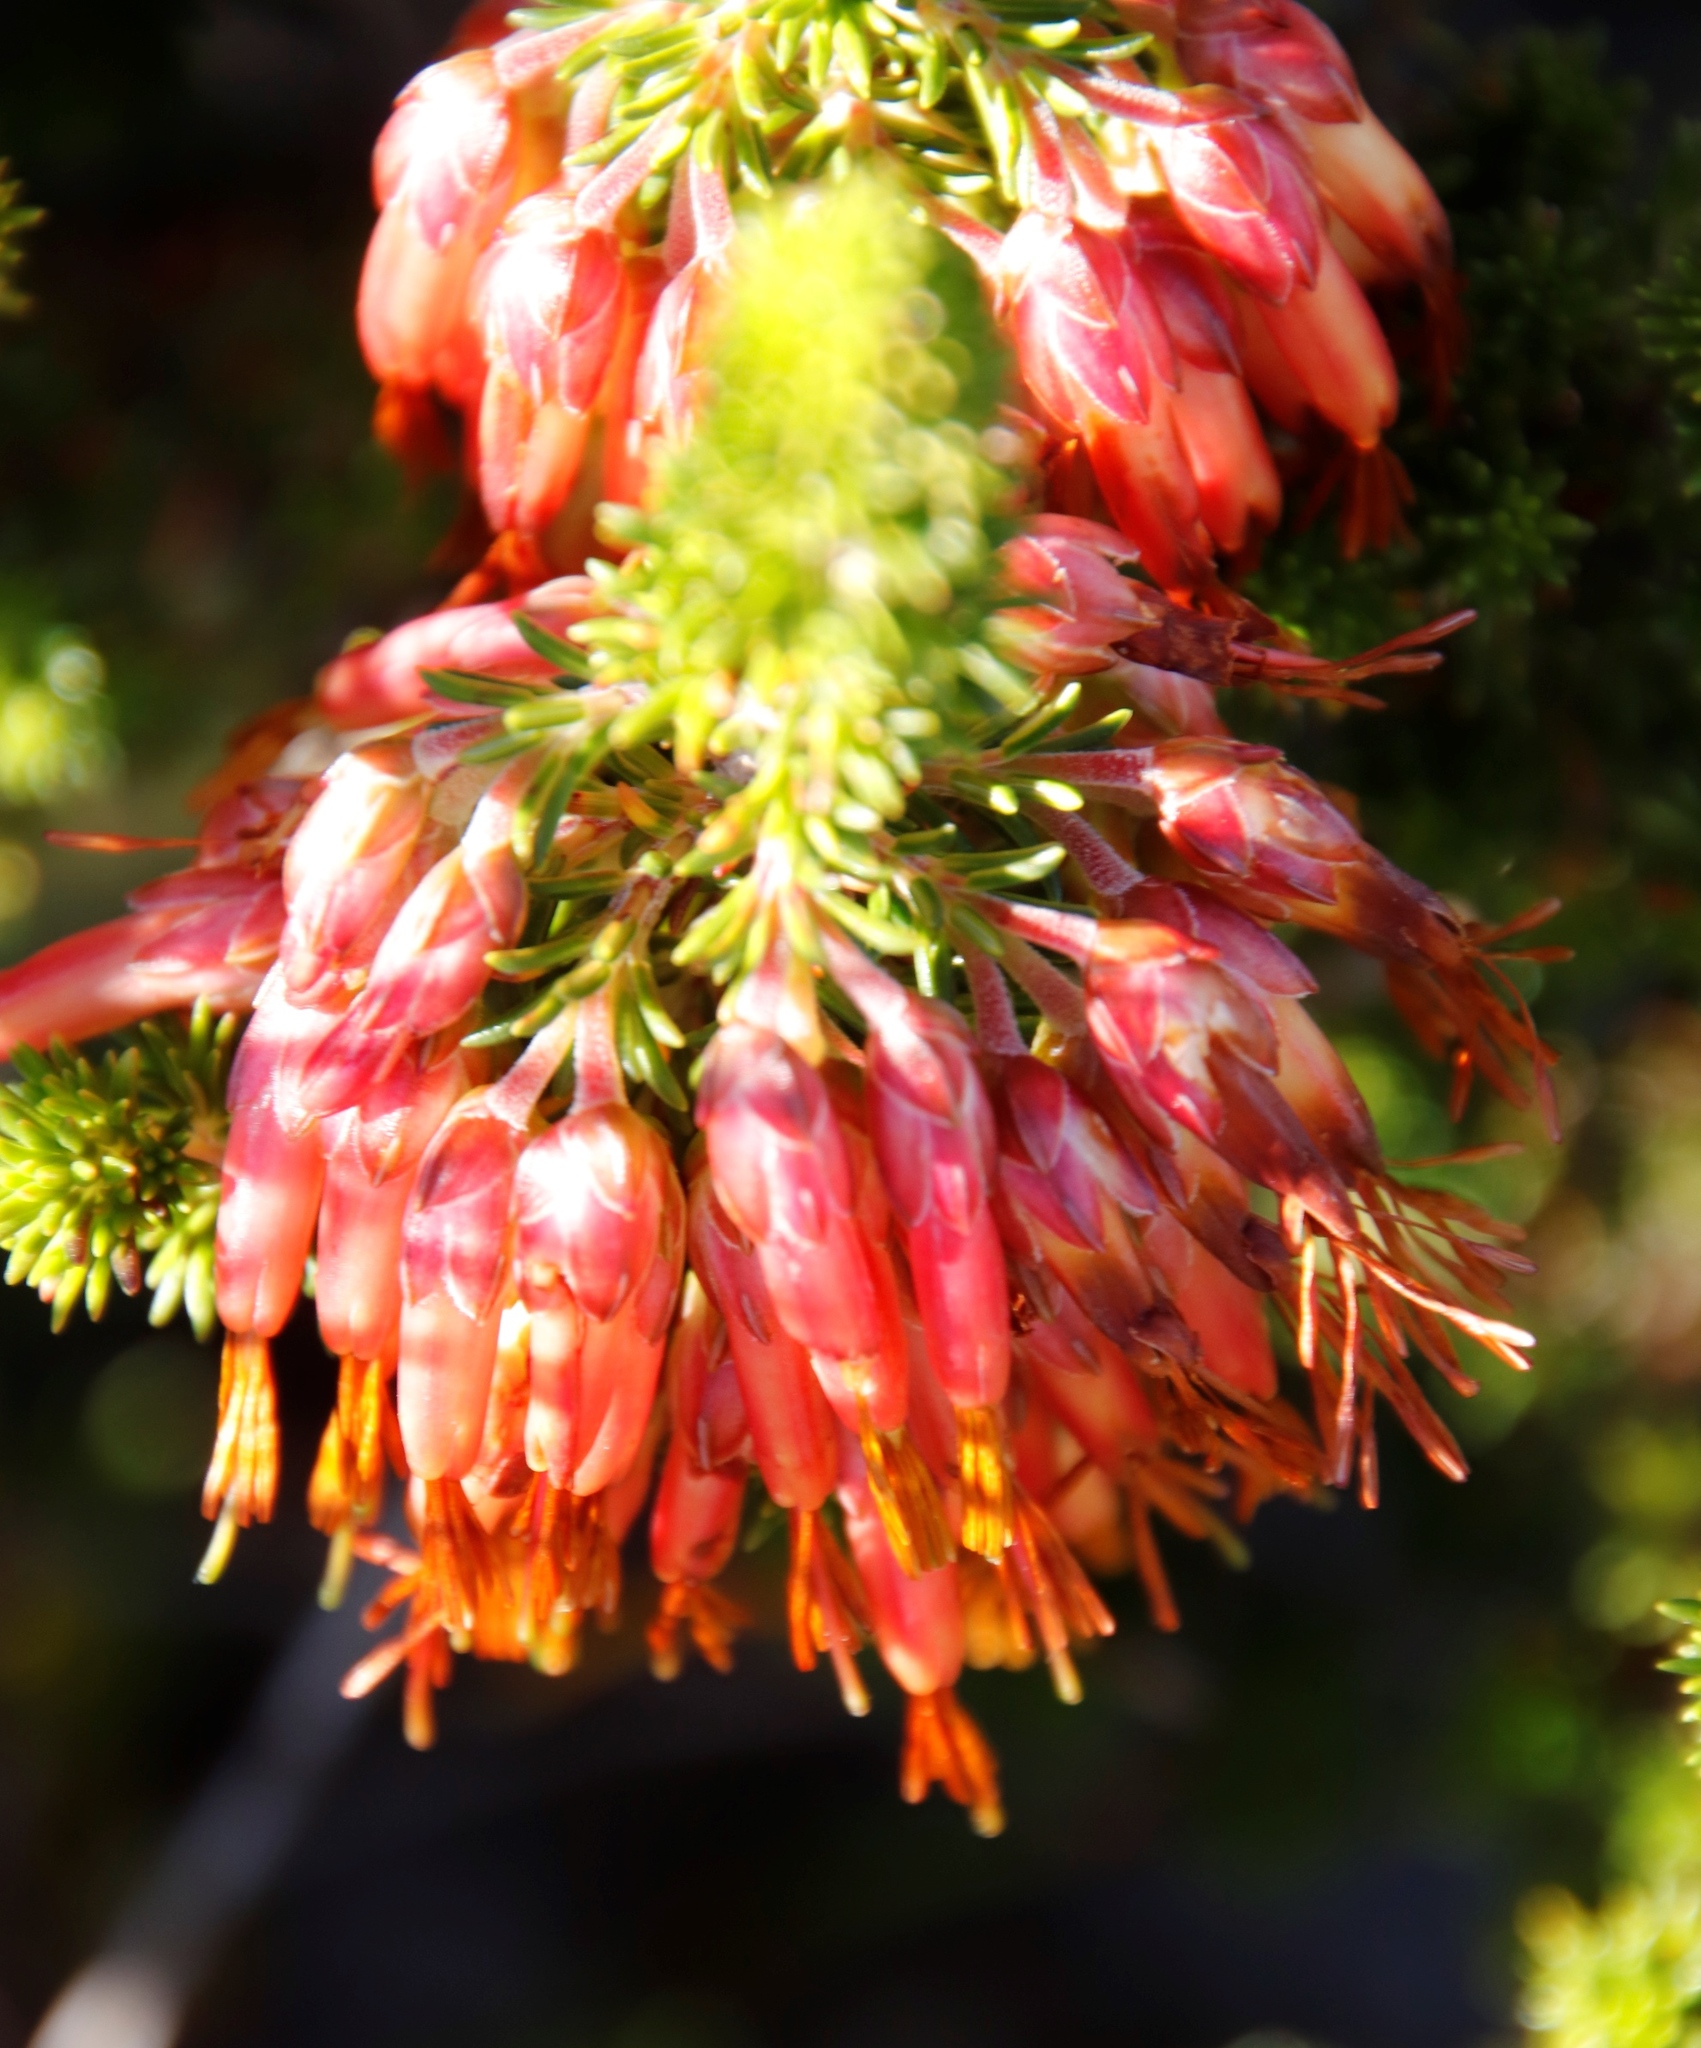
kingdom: Plantae
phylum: Tracheophyta
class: Magnoliopsida
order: Ericales
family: Ericaceae
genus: Erica
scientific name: Erica coccinea
